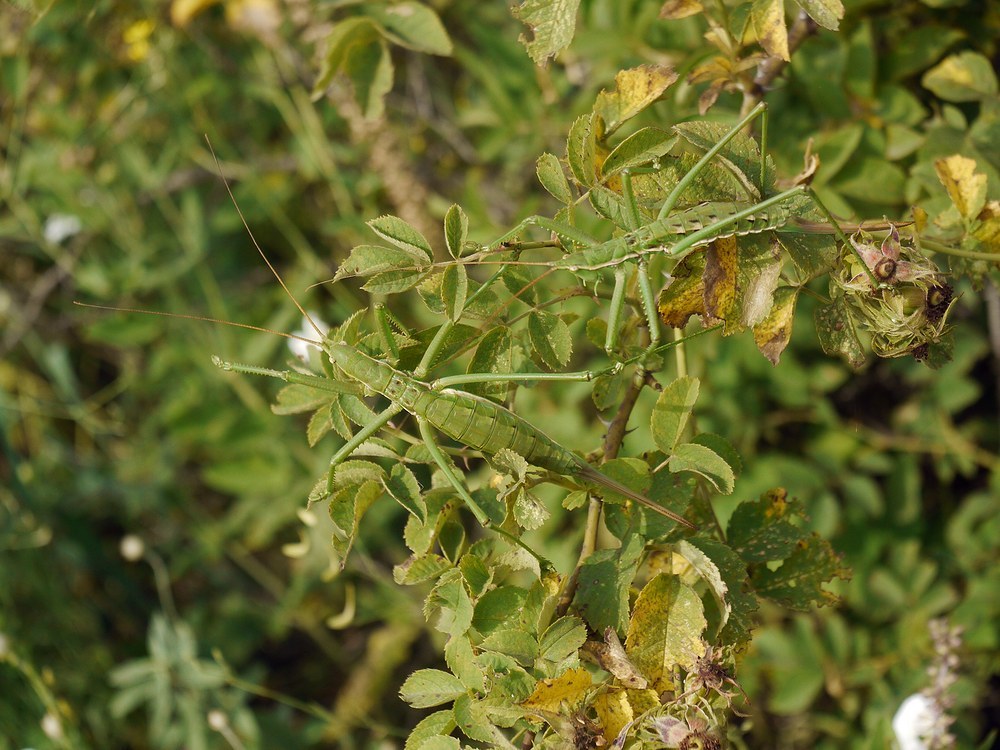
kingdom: Animalia
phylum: Arthropoda
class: Insecta
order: Orthoptera
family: Tettigoniidae
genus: Saga
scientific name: Saga pedo
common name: Common predatory bush-cricket
